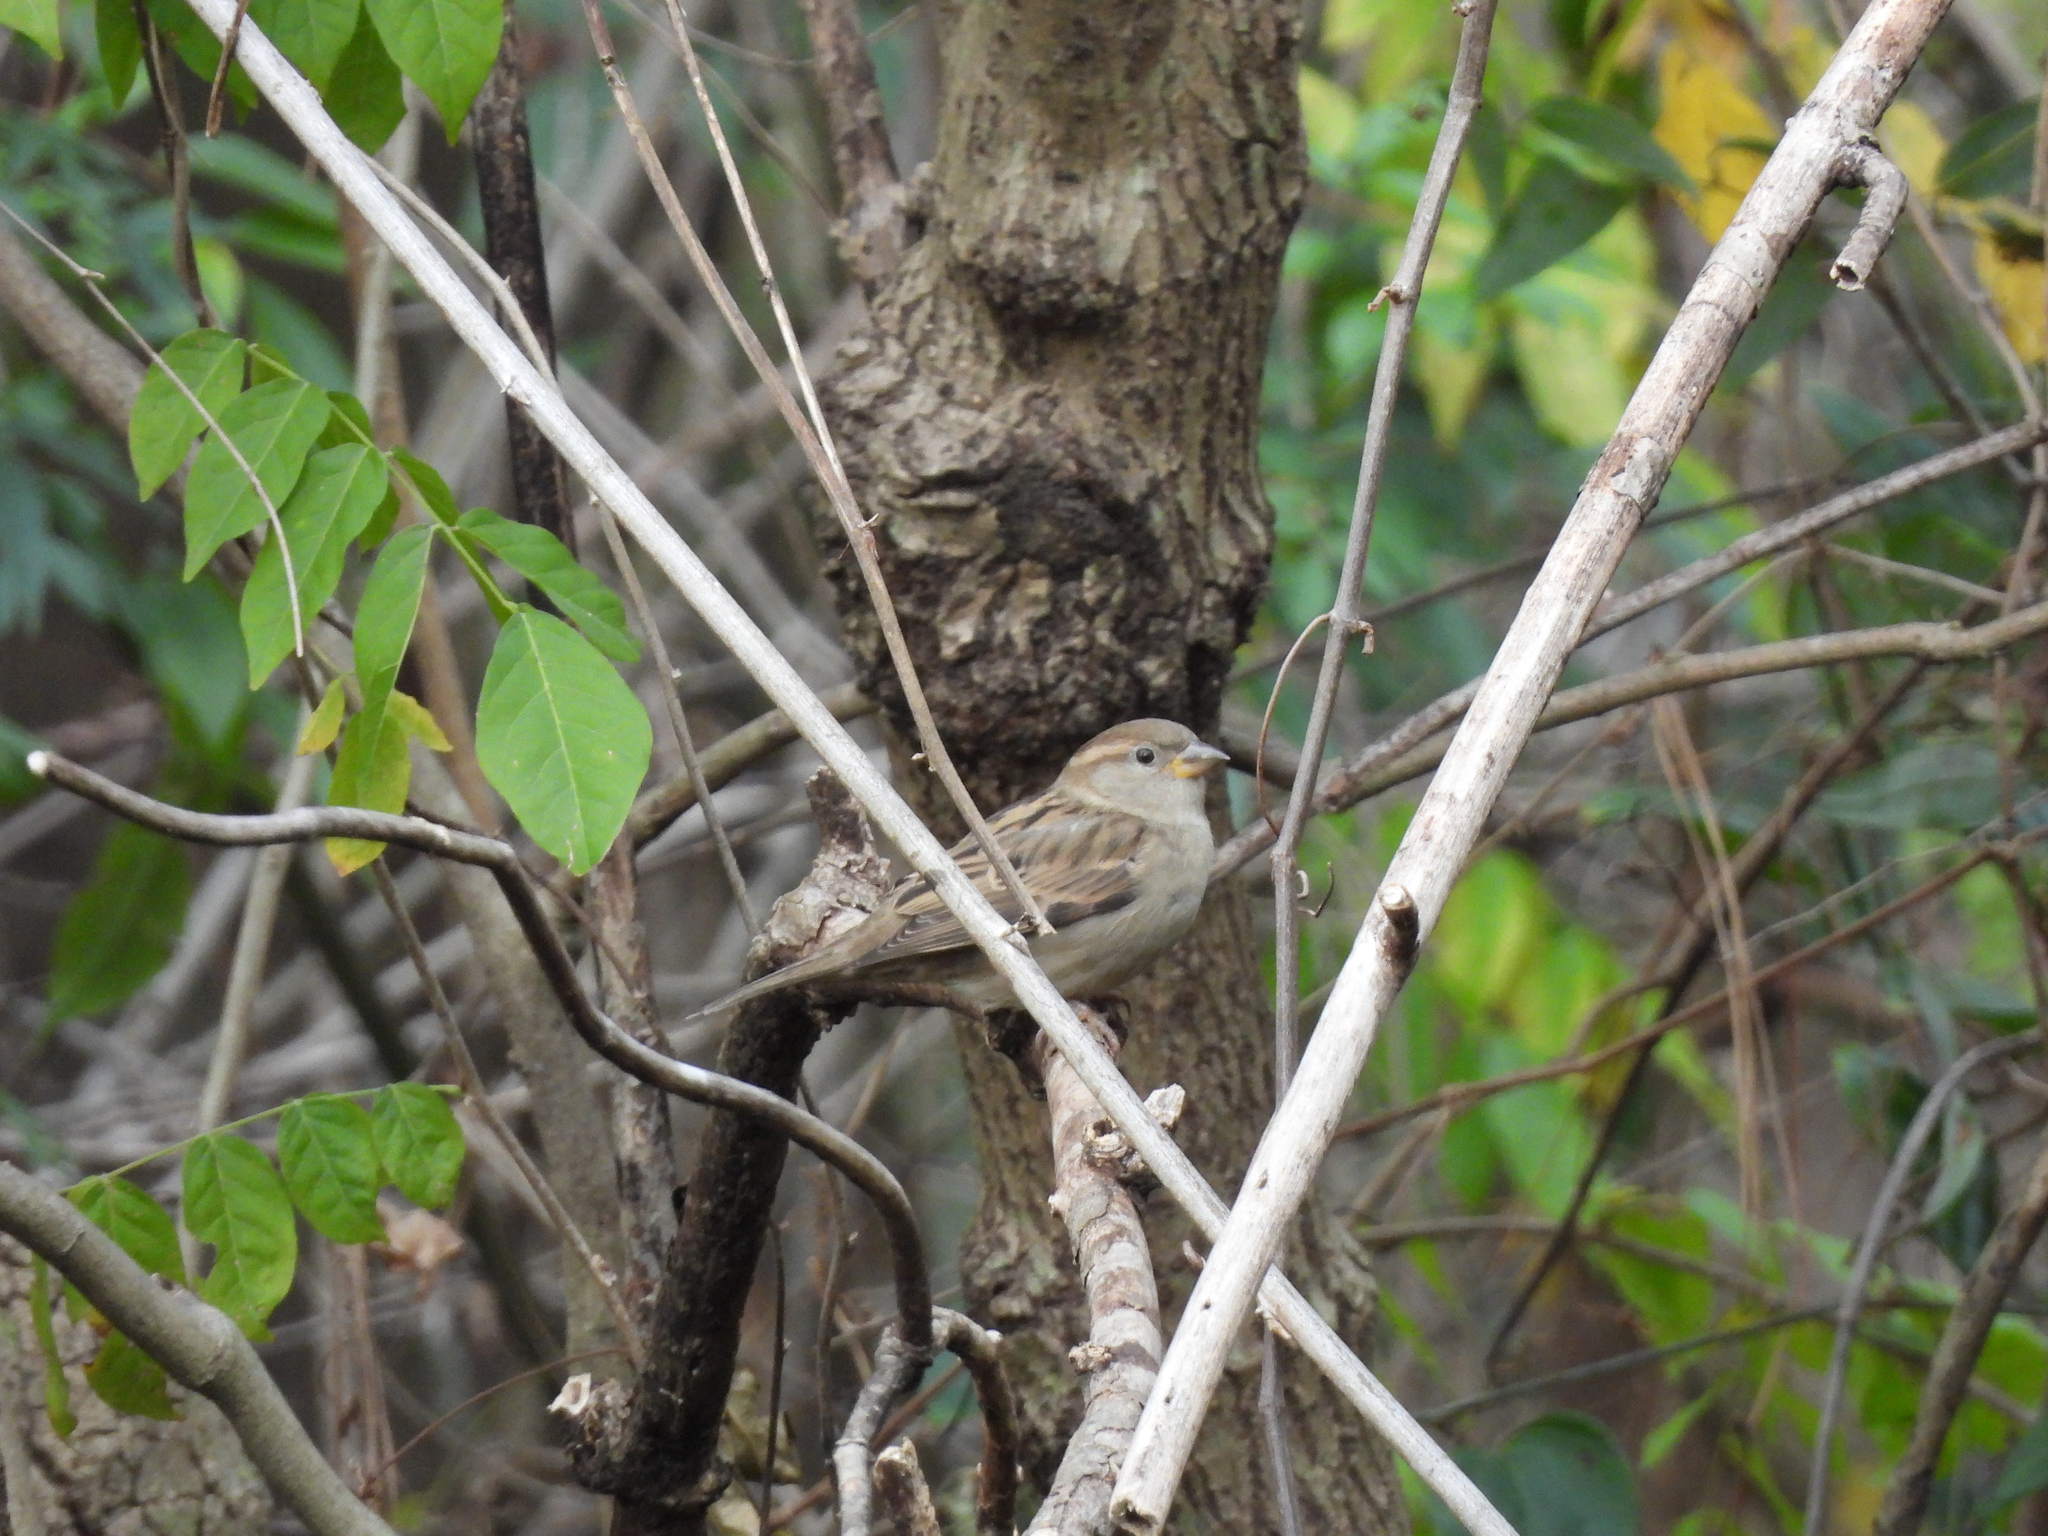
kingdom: Animalia
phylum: Chordata
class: Aves
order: Passeriformes
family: Passeridae
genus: Passer
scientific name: Passer domesticus
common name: House sparrow
